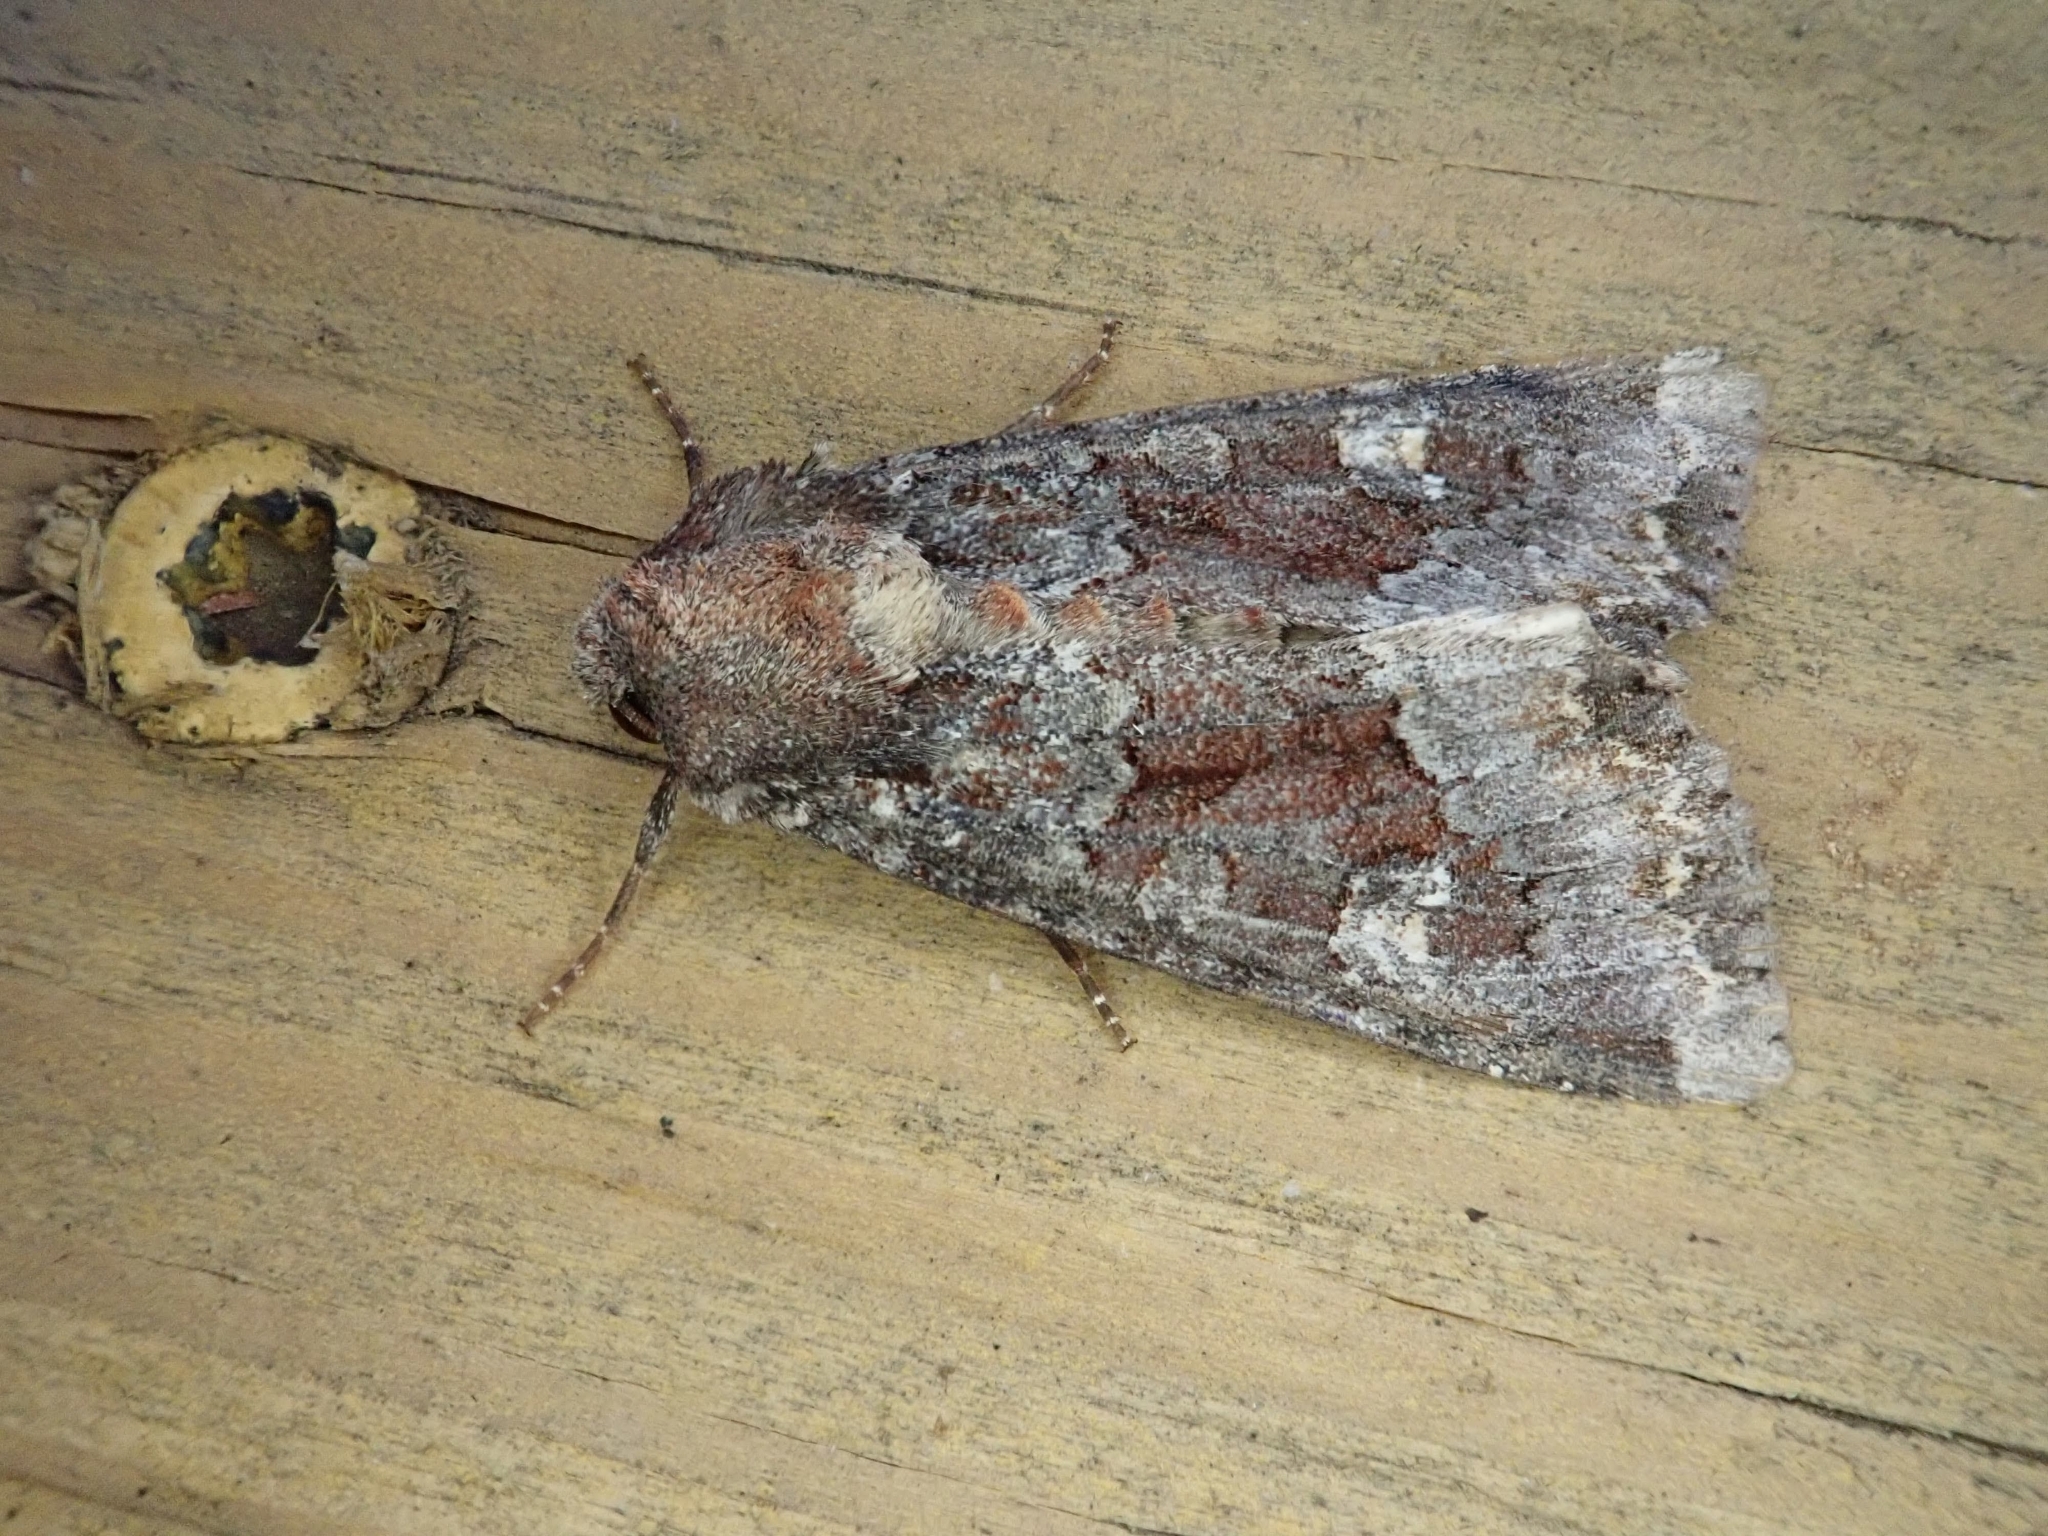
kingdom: Animalia
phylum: Arthropoda
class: Insecta
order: Lepidoptera
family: Noctuidae
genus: Apamea
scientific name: Apamea amputatrix
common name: Yellow-headed cutworm moth
